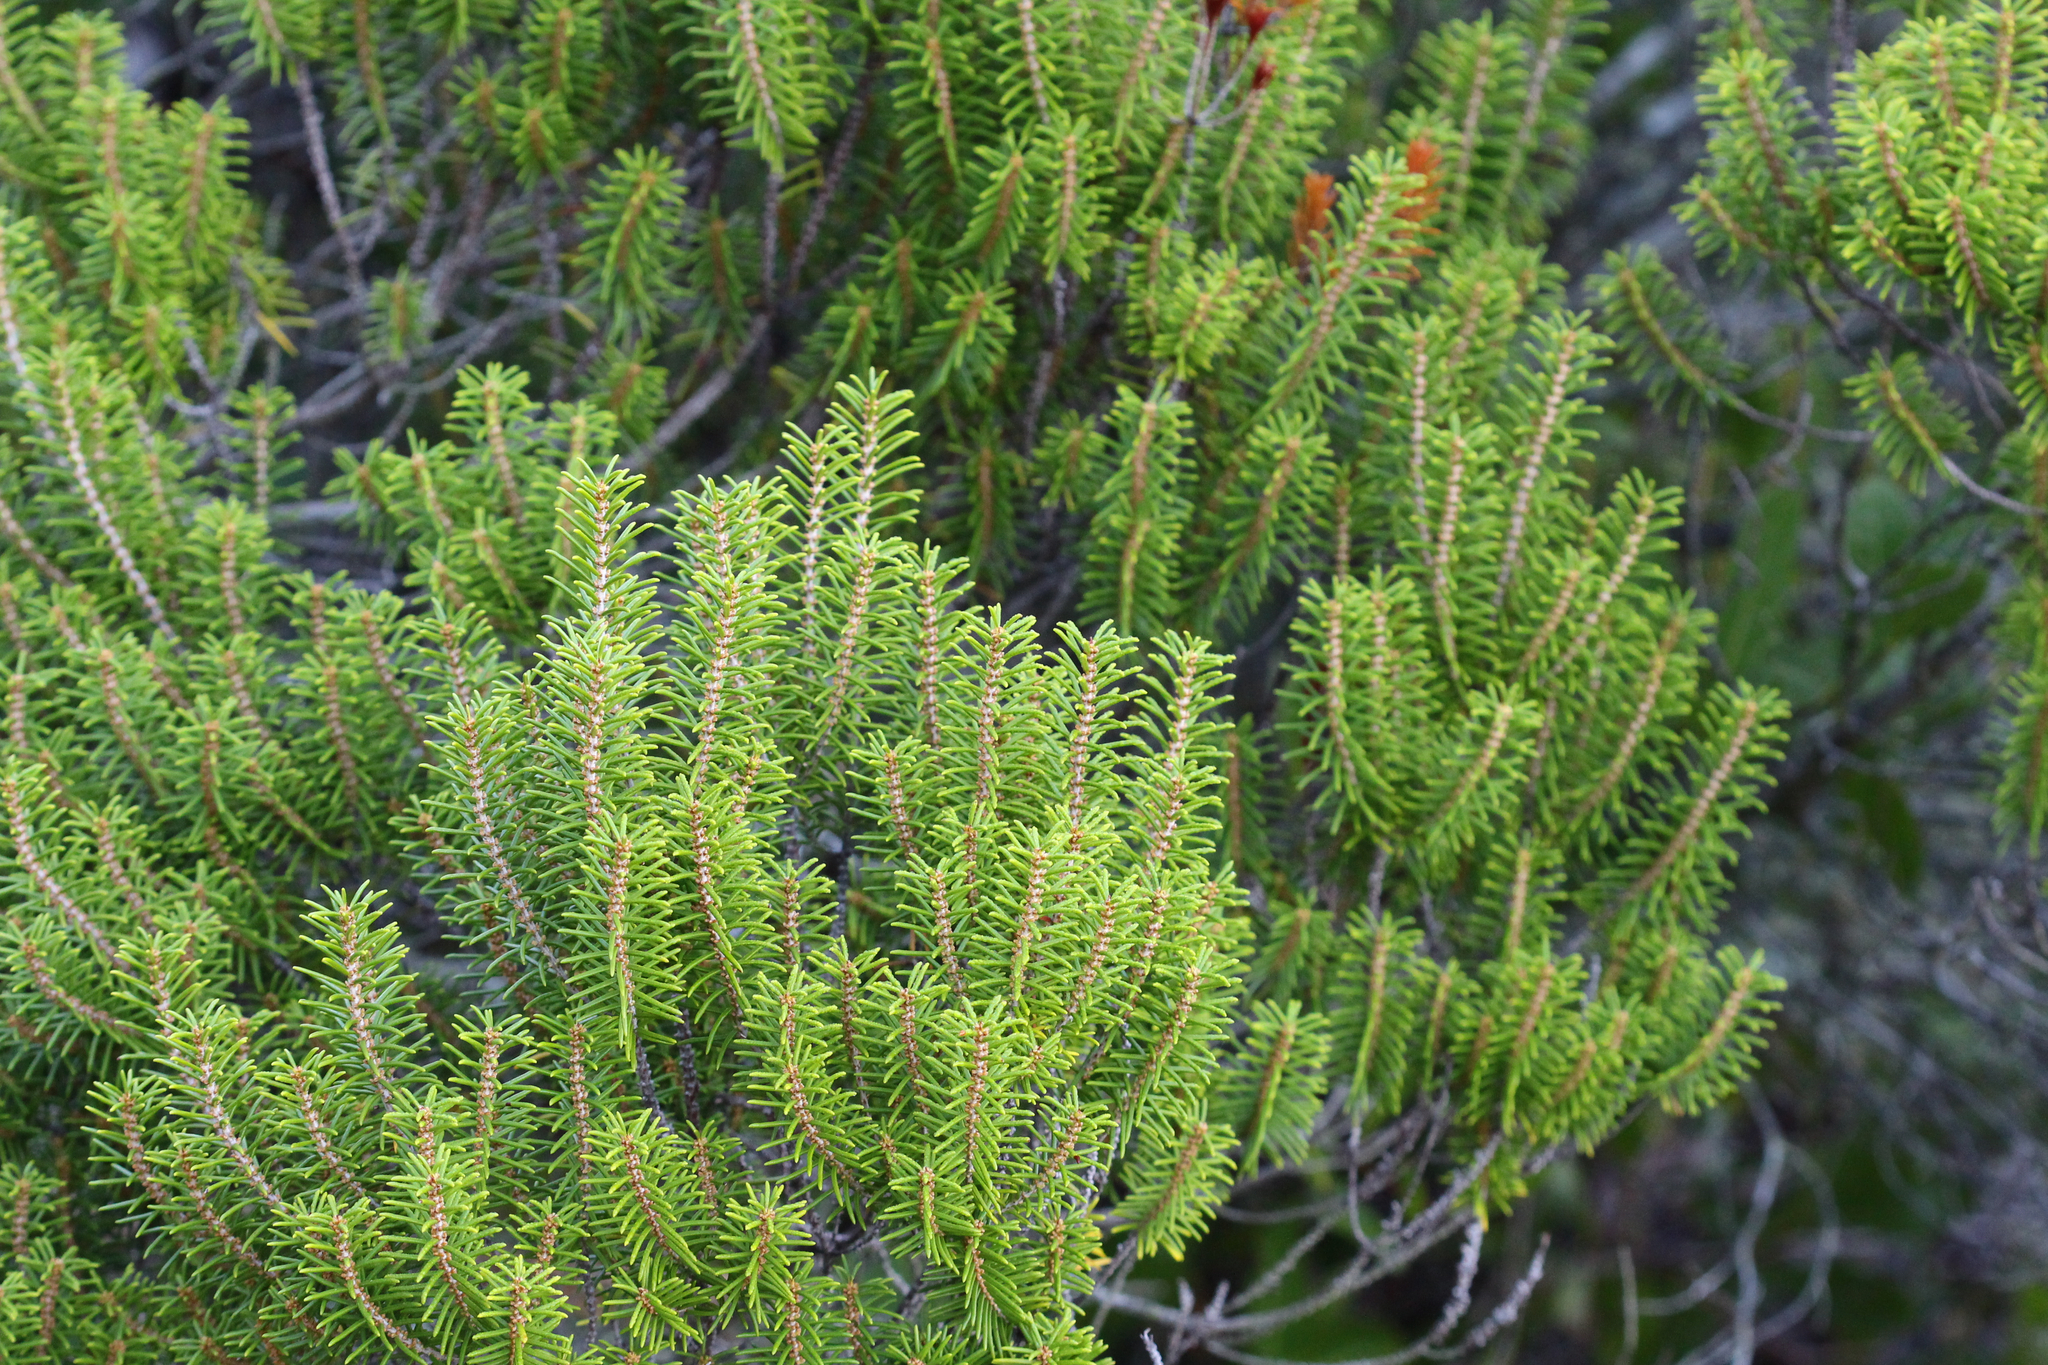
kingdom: Plantae
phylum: Tracheophyta
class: Magnoliopsida
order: Ericales
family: Ericaceae
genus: Ceratiola
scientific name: Ceratiola ericoides
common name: Sandhill-rosemary
